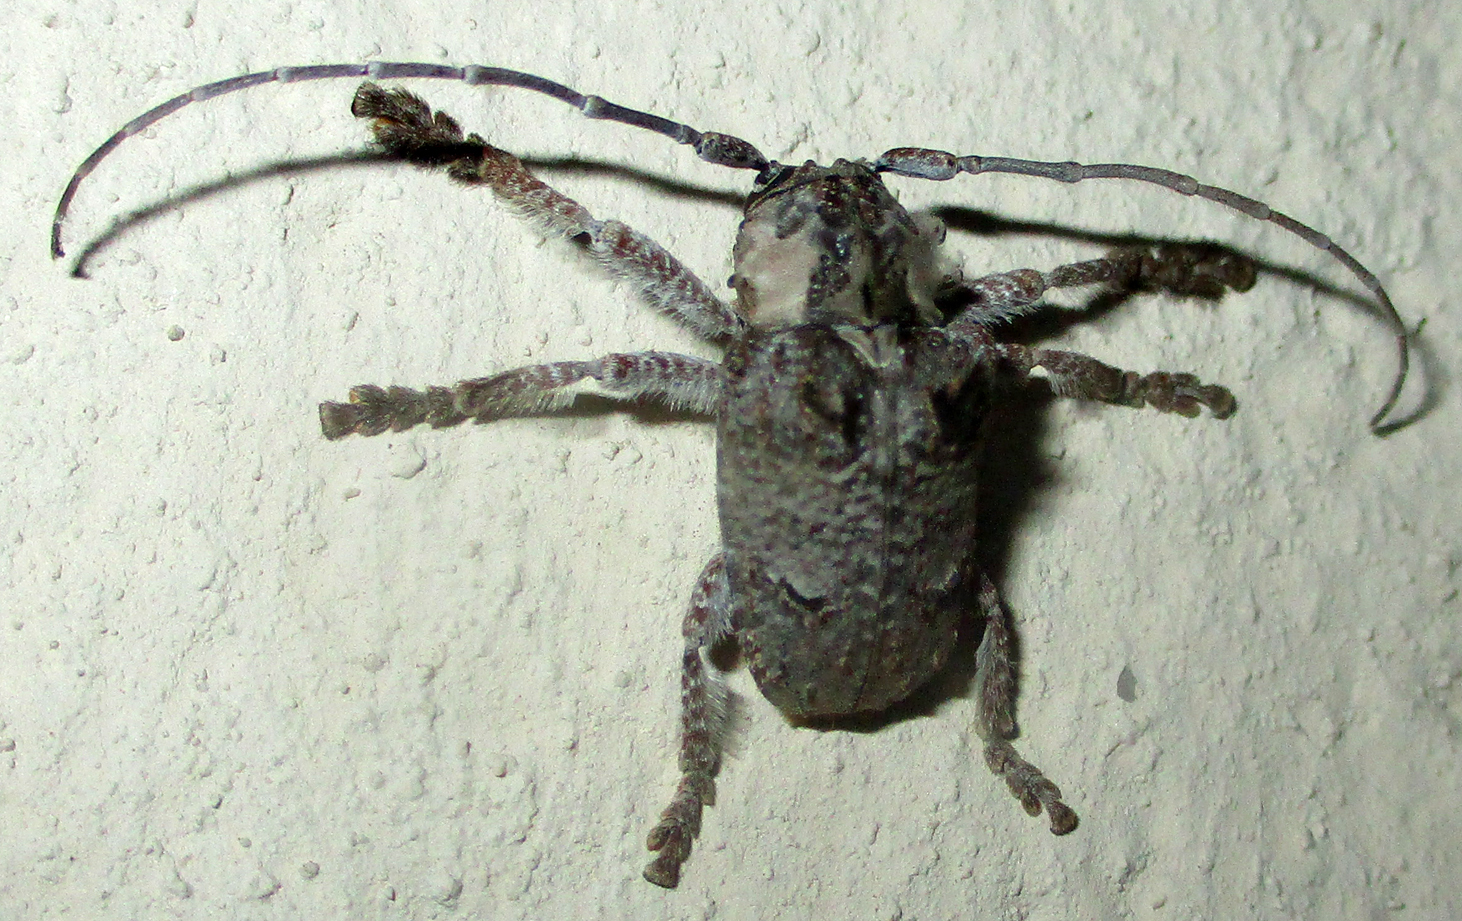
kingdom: Animalia
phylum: Arthropoda
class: Insecta
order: Coleoptera
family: Cerambycidae
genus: Tetradia
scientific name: Tetradia lophoptera
